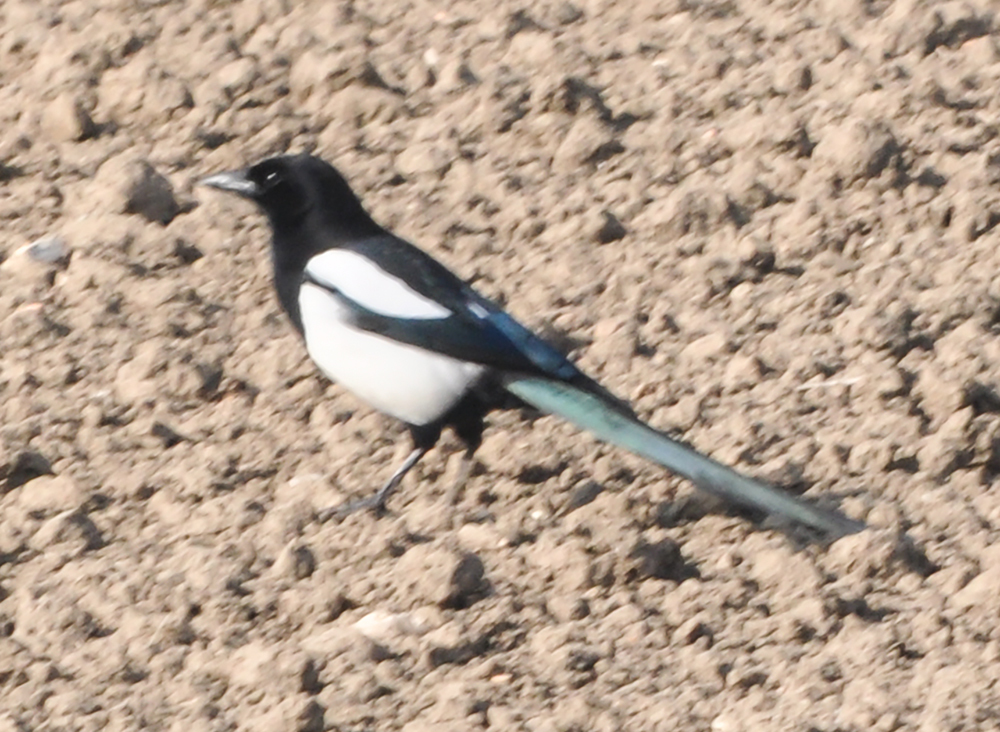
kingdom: Animalia
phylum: Chordata
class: Aves
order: Passeriformes
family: Corvidae
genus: Pica
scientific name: Pica pica
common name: Eurasian magpie
